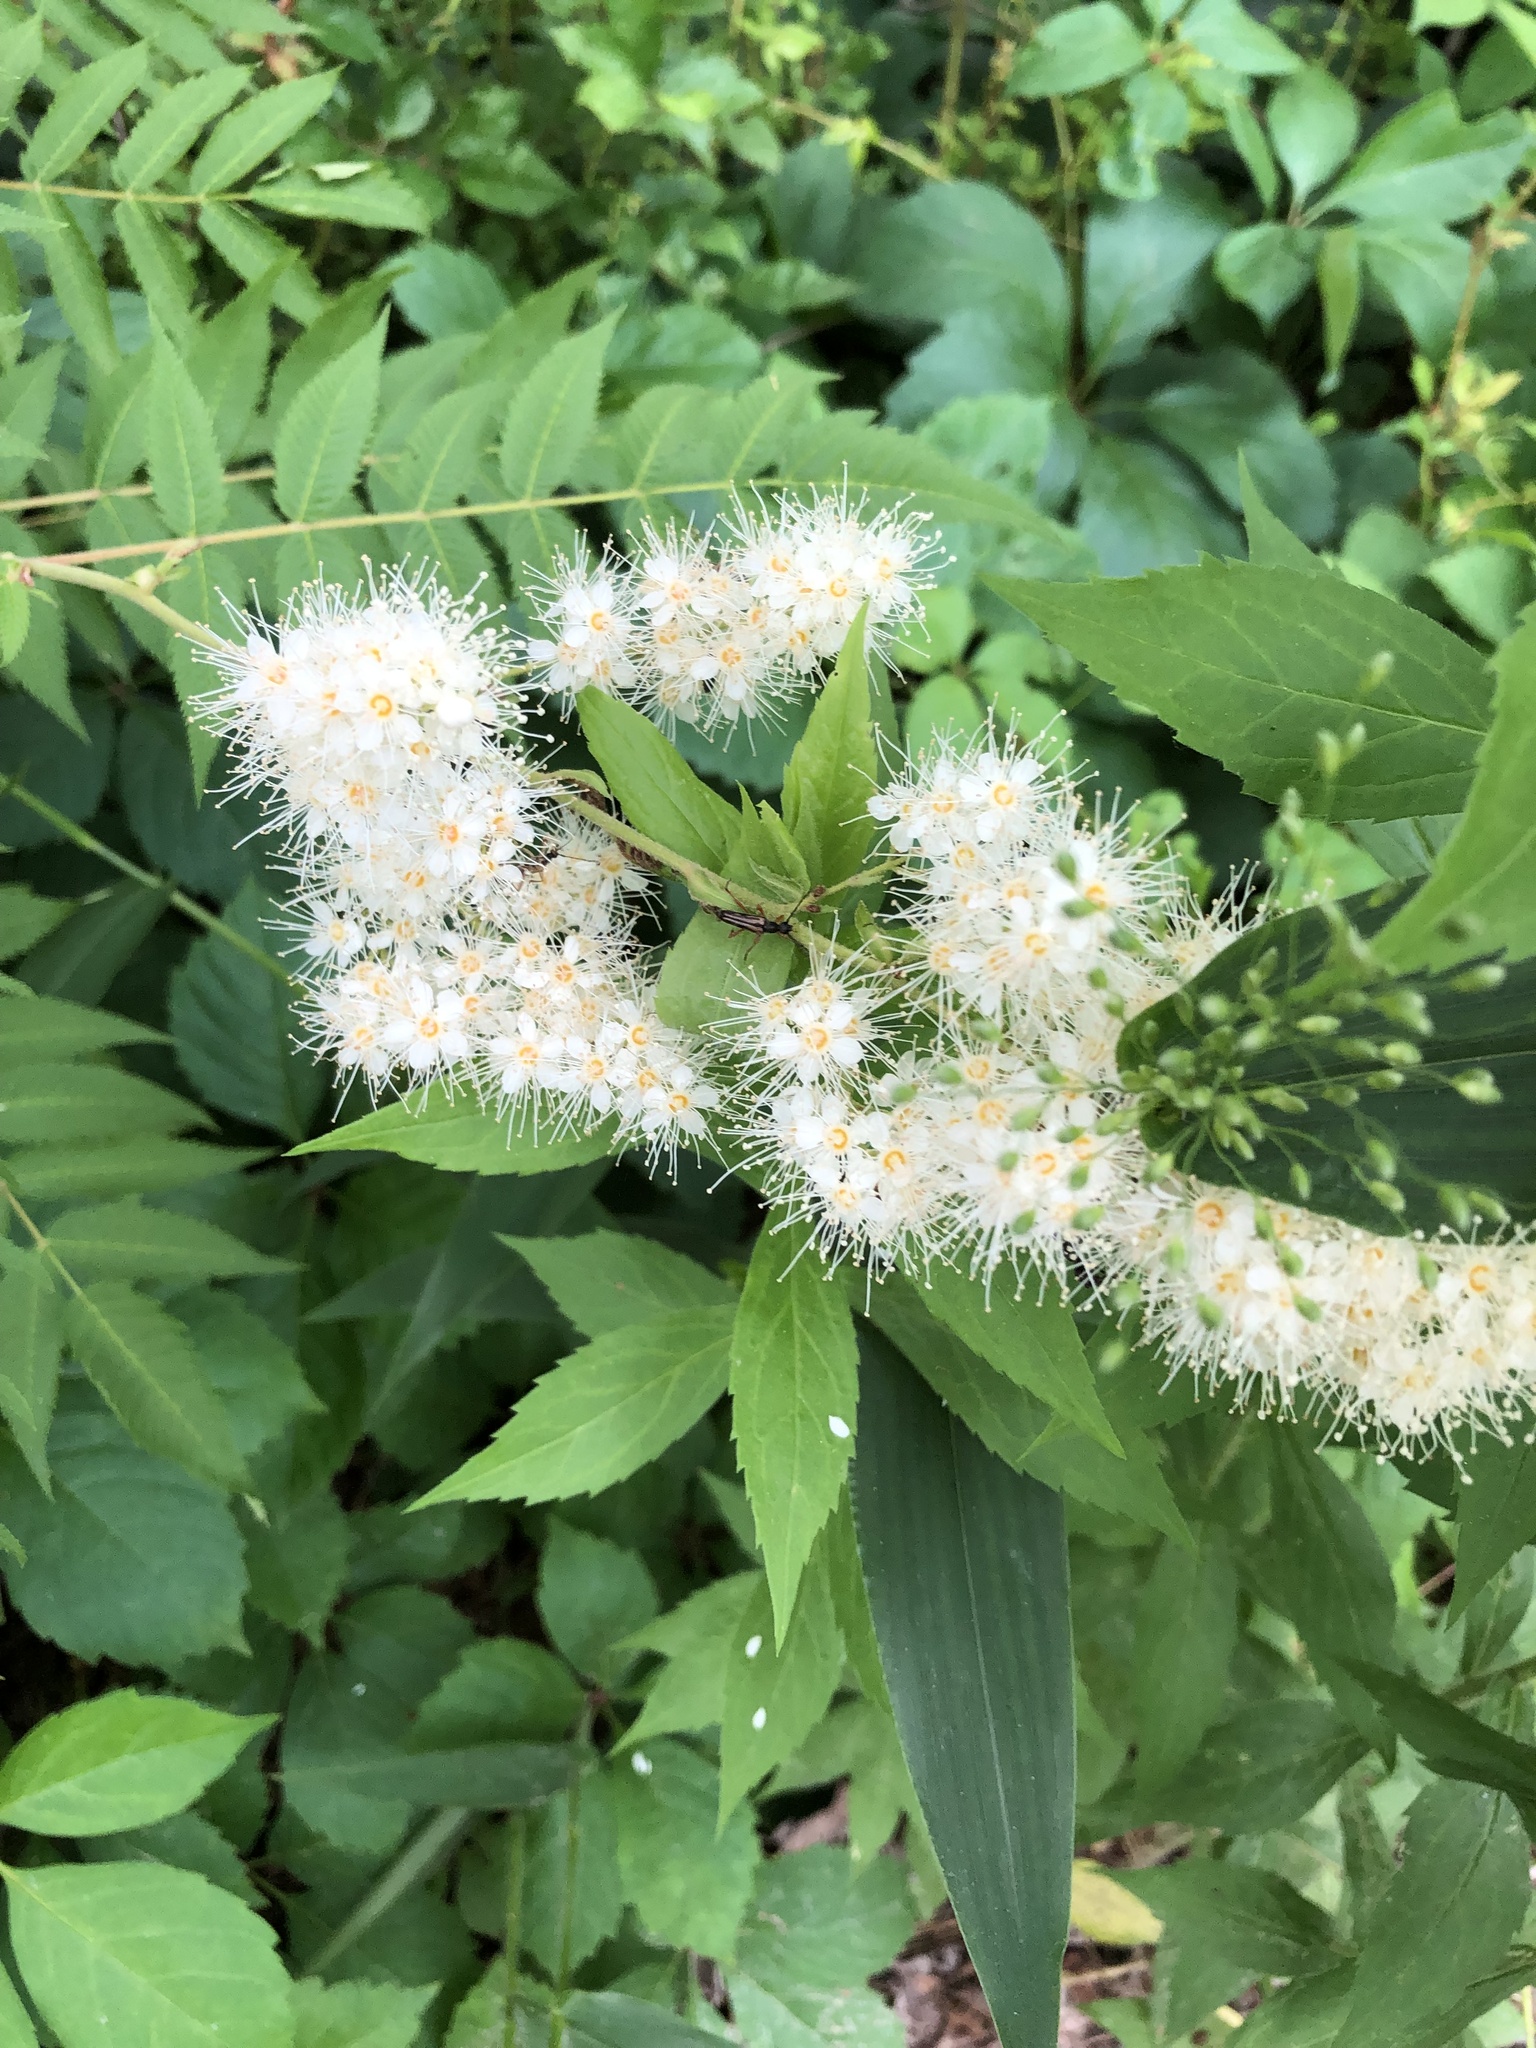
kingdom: Plantae
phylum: Tracheophyta
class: Magnoliopsida
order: Rosales
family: Rosaceae
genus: Sorbaria
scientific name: Sorbaria sorbifolia
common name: False spiraea
